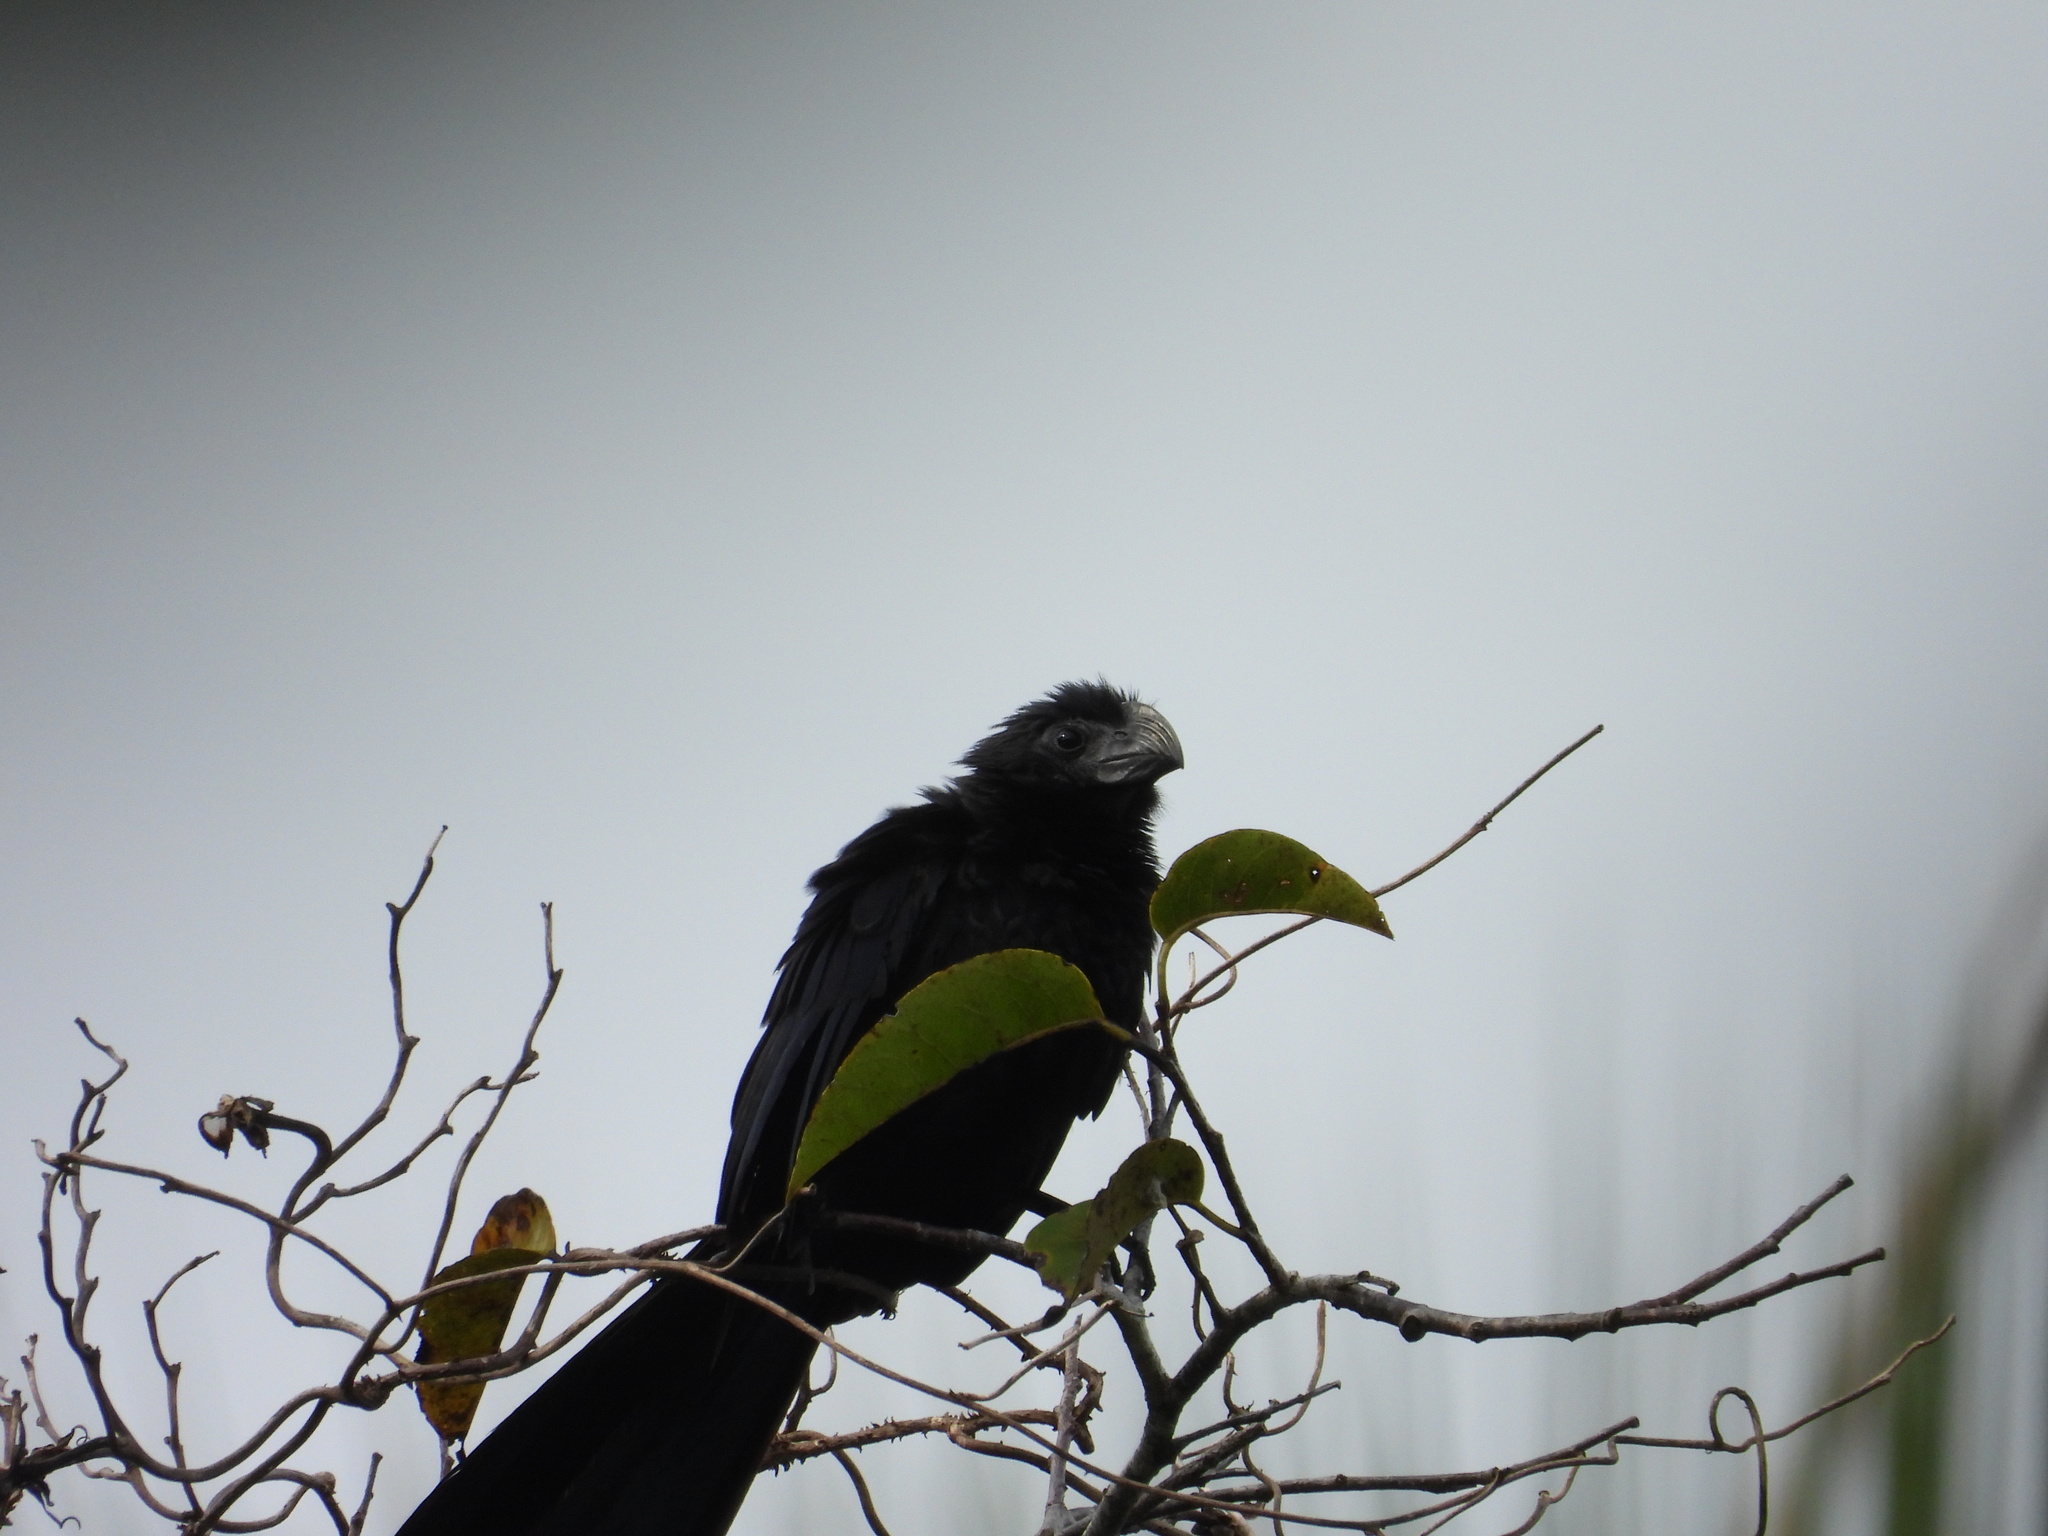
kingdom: Animalia
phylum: Chordata
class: Aves
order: Cuculiformes
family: Cuculidae
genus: Crotophaga
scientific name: Crotophaga sulcirostris
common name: Groove-billed ani
